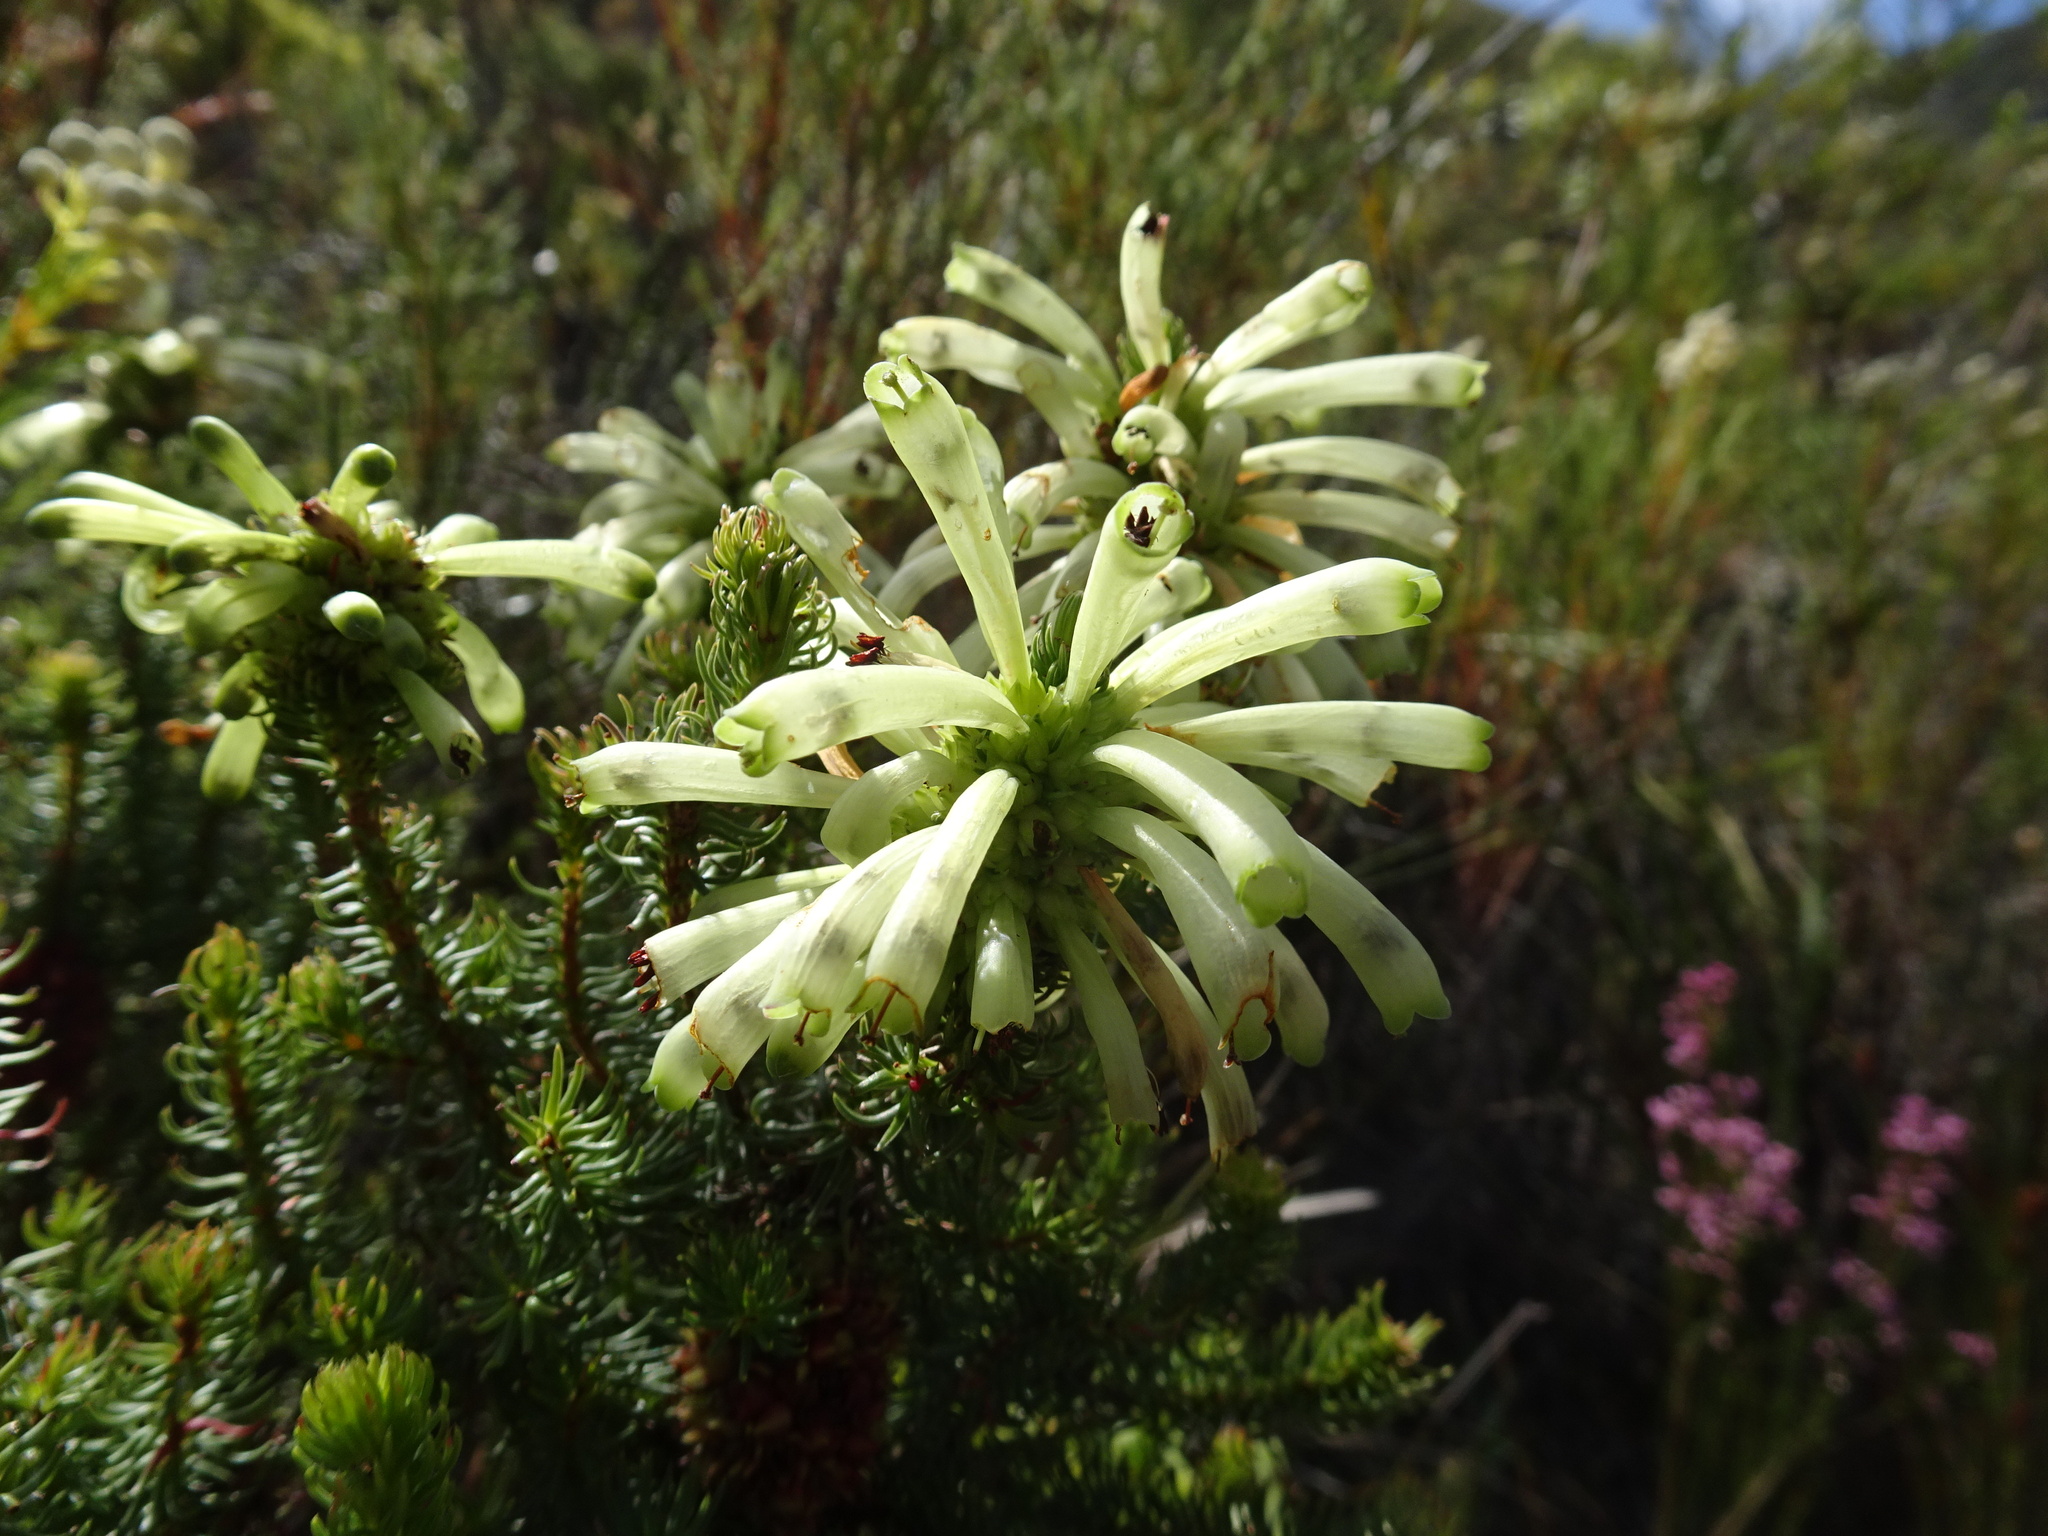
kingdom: Plantae
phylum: Tracheophyta
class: Magnoliopsida
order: Ericales
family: Ericaceae
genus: Erica
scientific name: Erica sessiliflora
